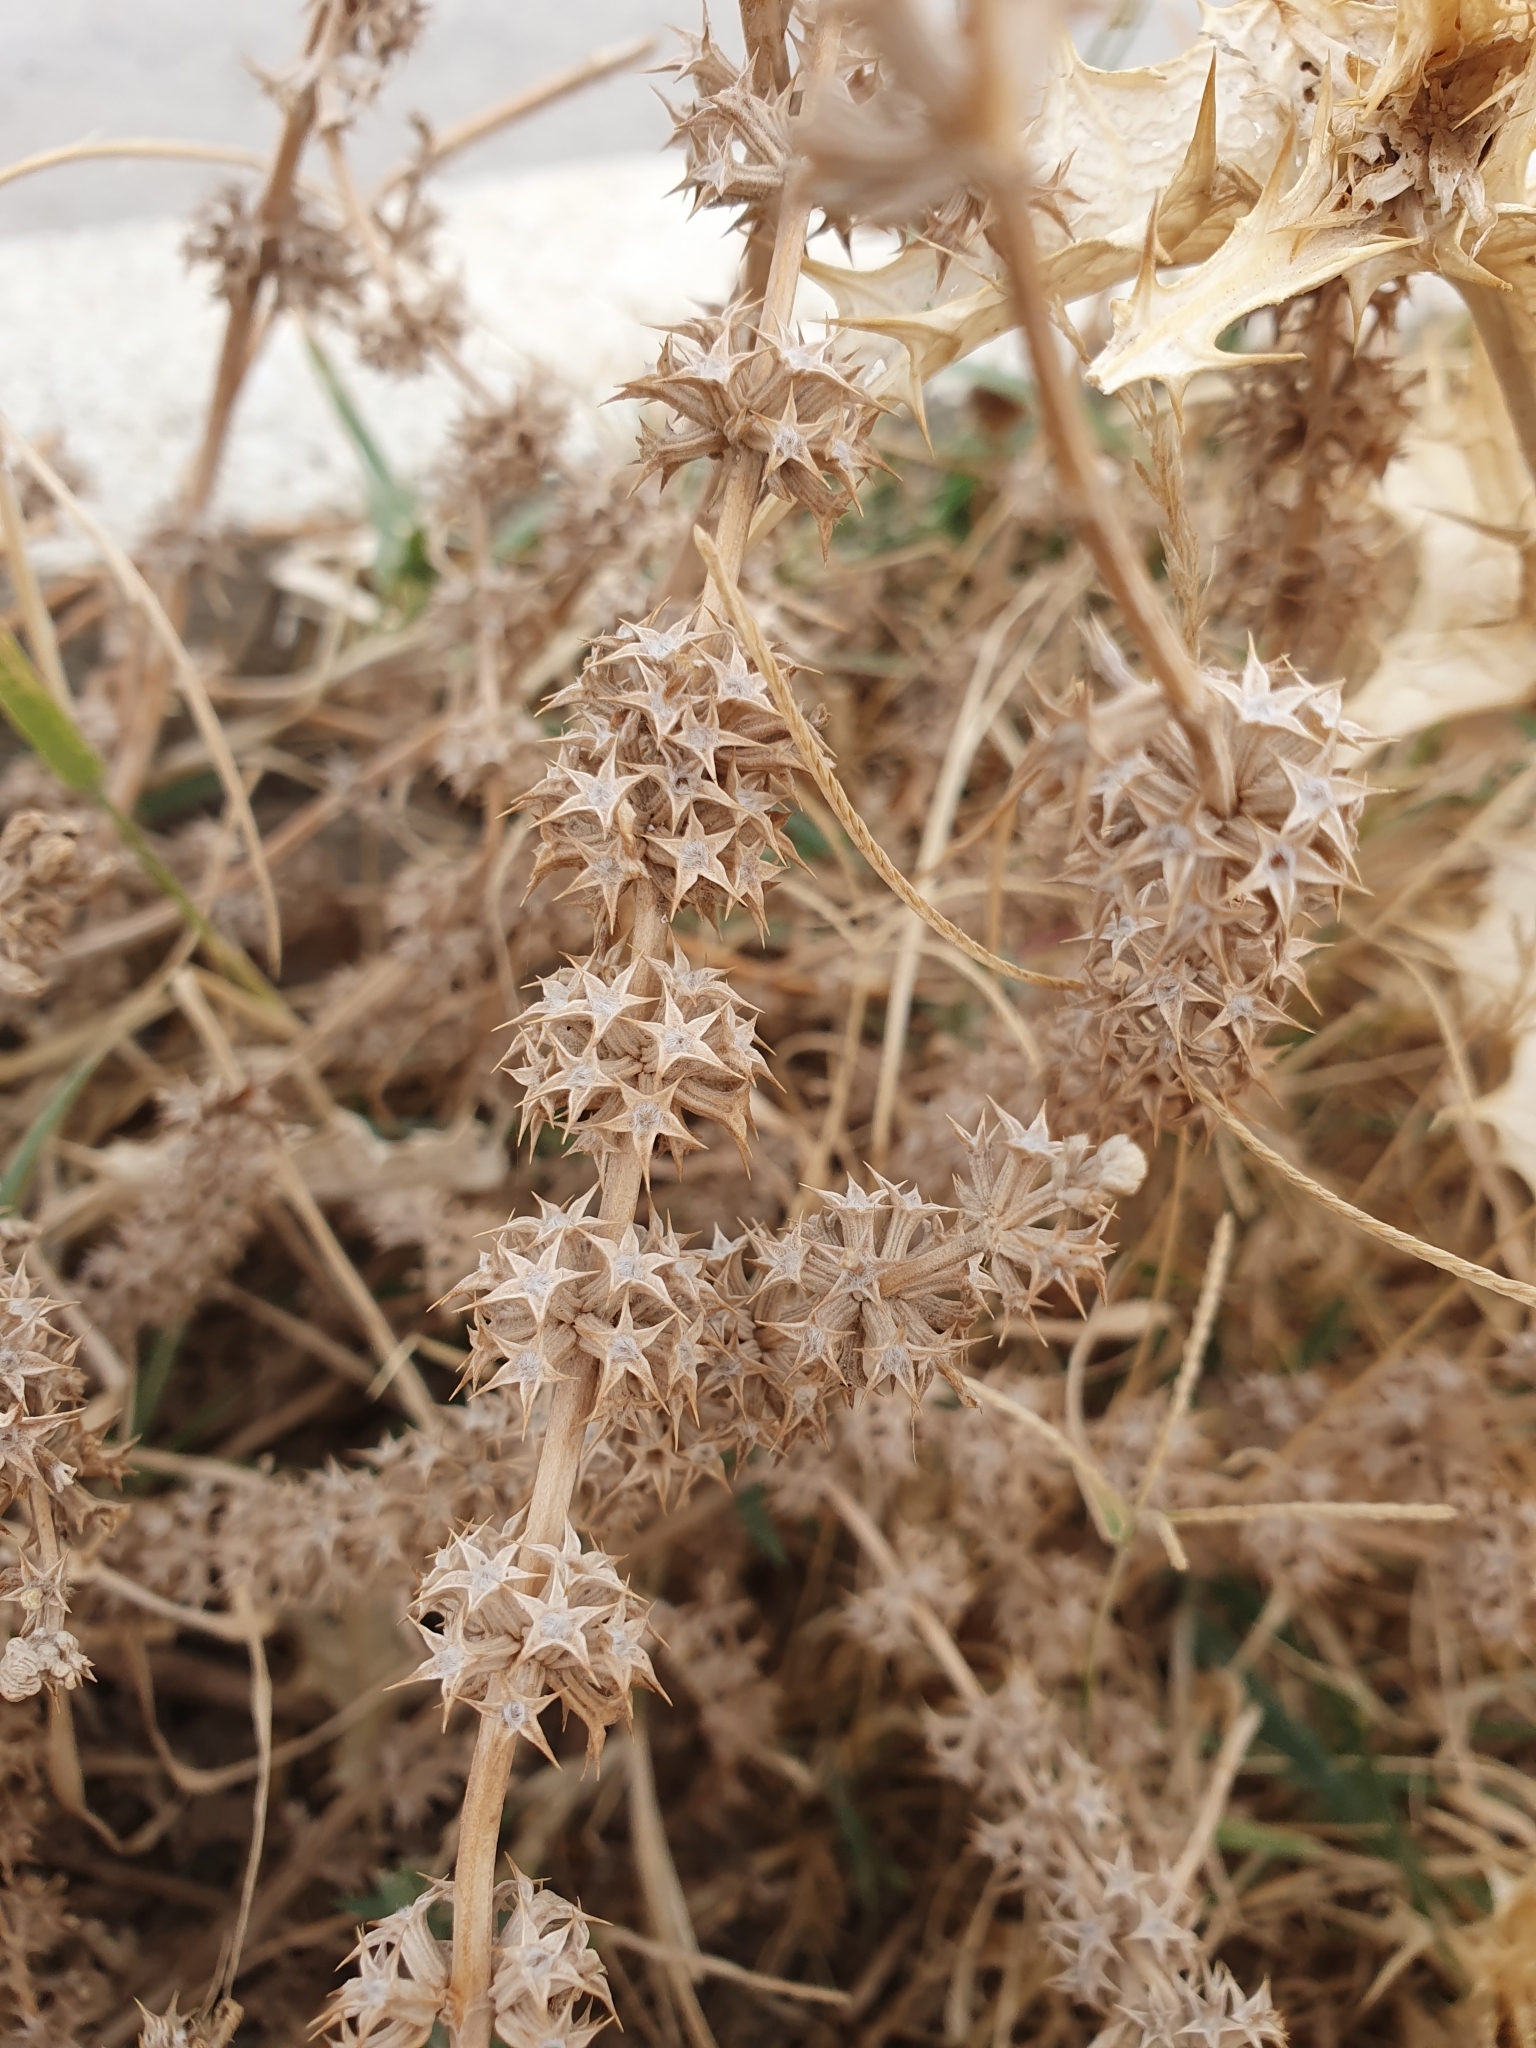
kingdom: Plantae
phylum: Tracheophyta
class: Magnoliopsida
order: Lamiales
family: Lamiaceae
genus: Marrubium
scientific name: Marrubium alysson
